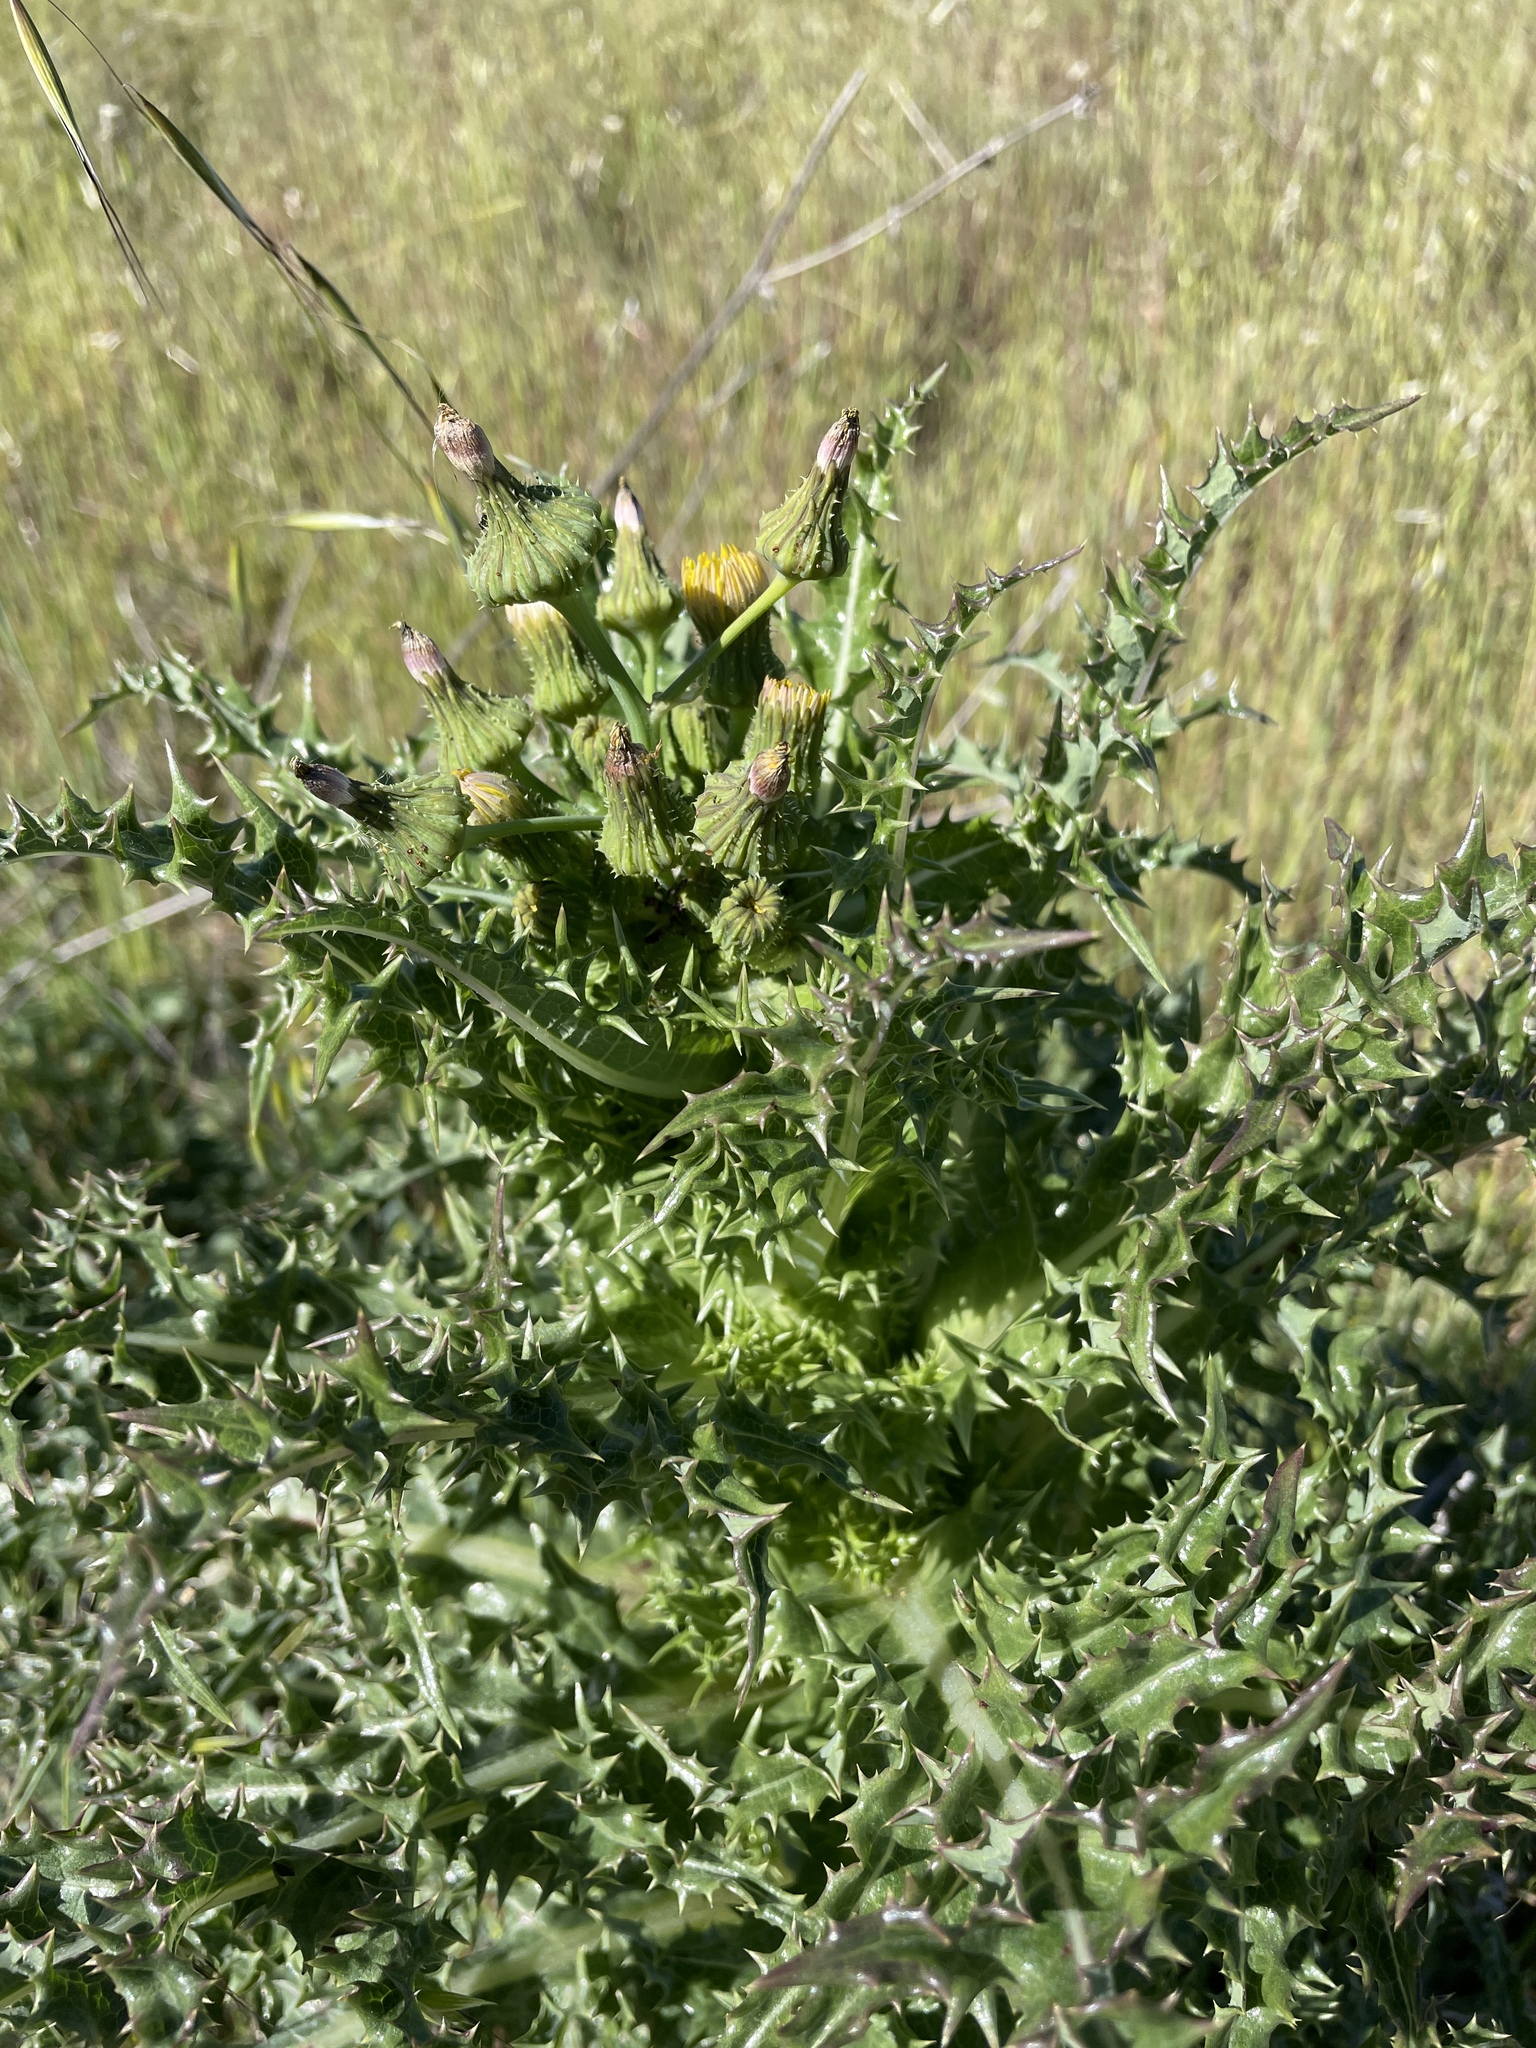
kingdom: Plantae
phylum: Tracheophyta
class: Magnoliopsida
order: Asterales
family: Asteraceae
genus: Sonchus
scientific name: Sonchus asper
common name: Prickly sow-thistle
